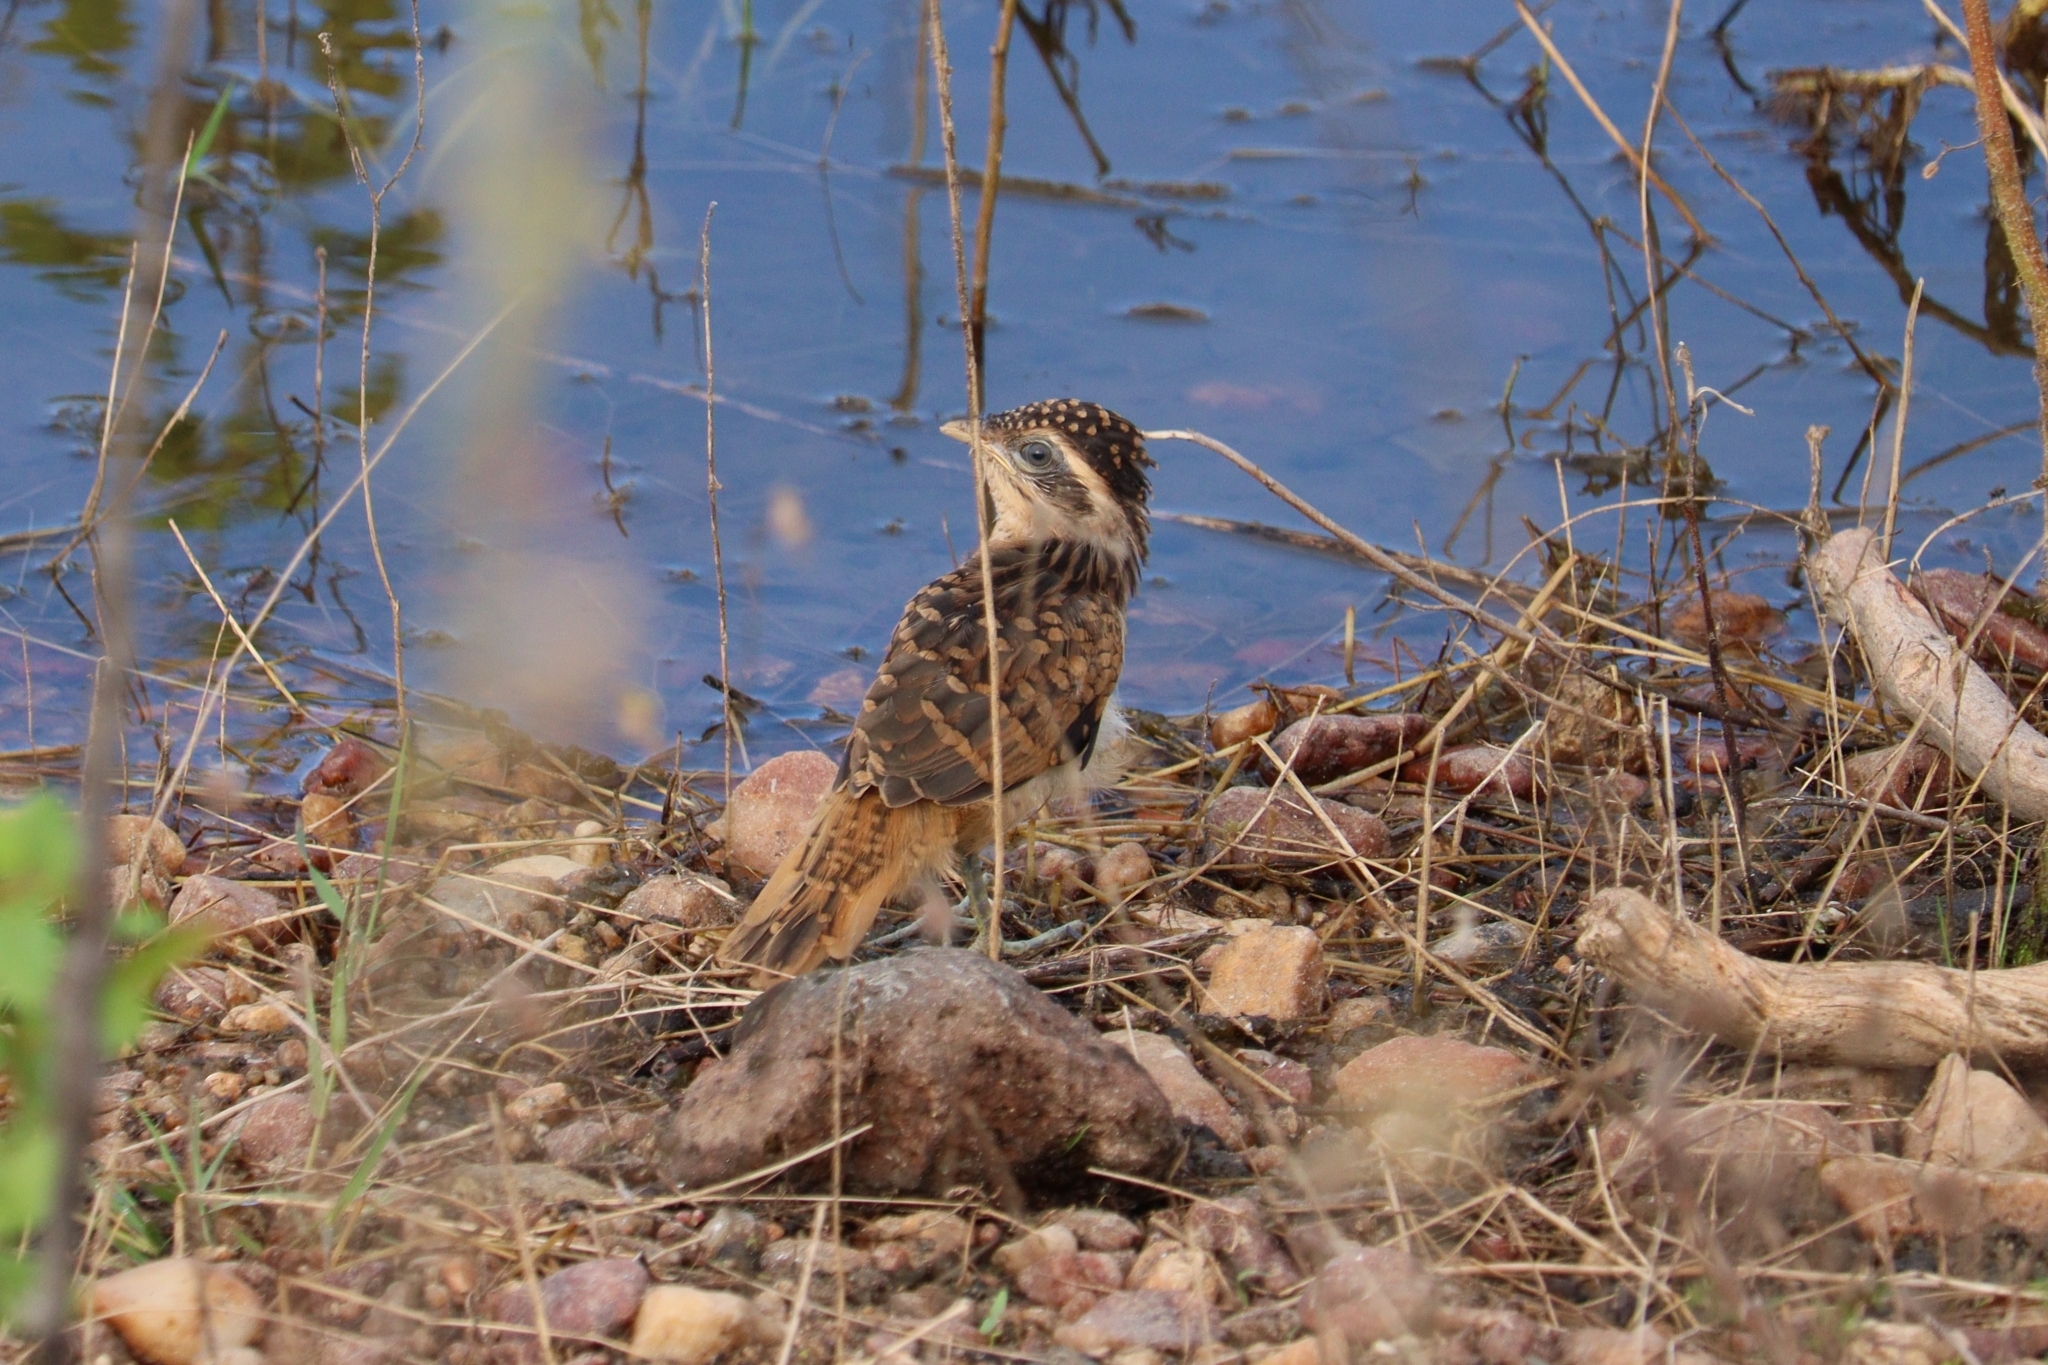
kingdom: Animalia
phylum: Chordata
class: Aves
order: Cuculiformes
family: Cuculidae
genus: Tapera
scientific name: Tapera naevia
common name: Striped cuckoo
